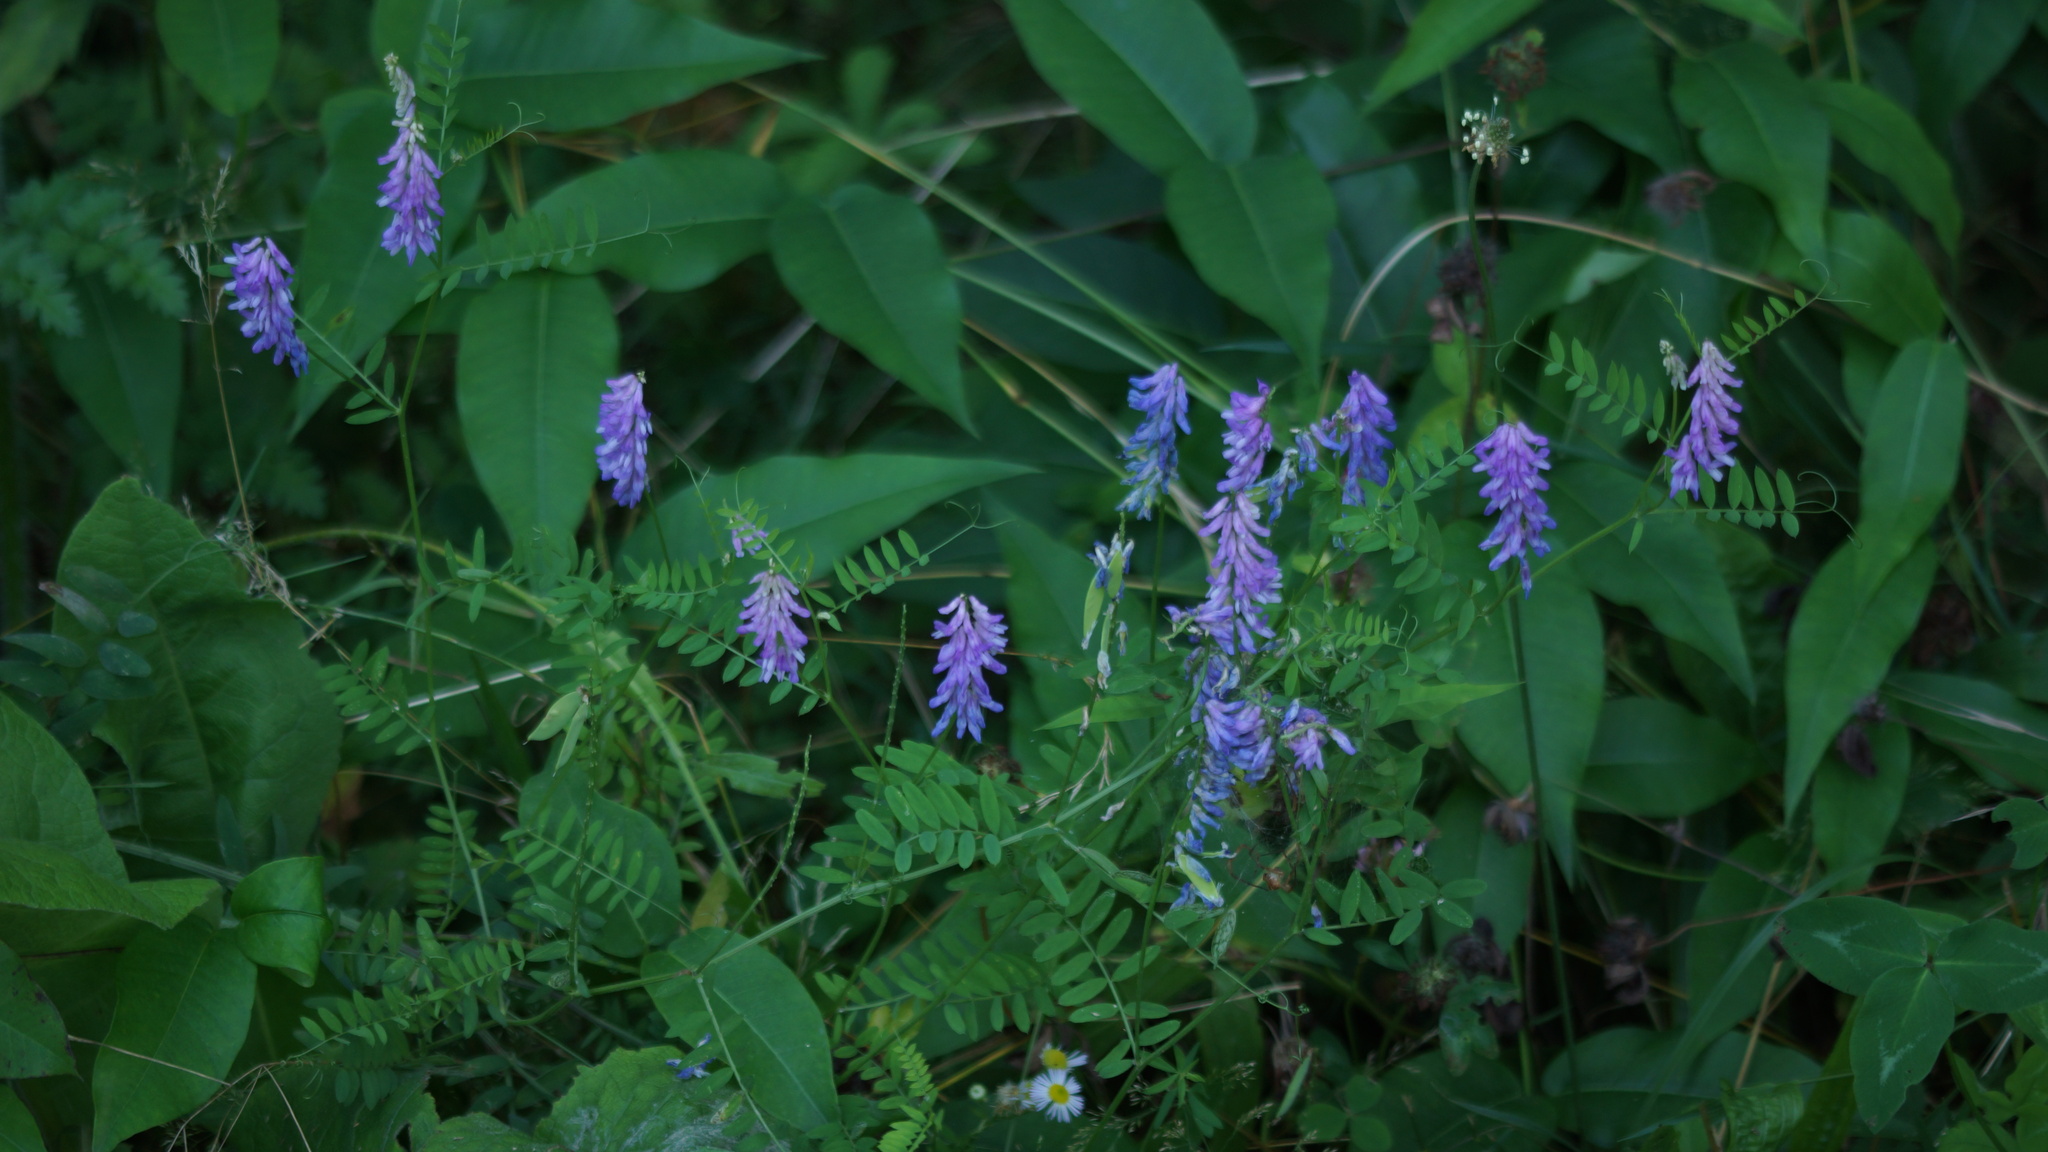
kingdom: Plantae
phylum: Tracheophyta
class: Magnoliopsida
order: Fabales
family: Fabaceae
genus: Vicia
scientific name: Vicia cracca
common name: Bird vetch
